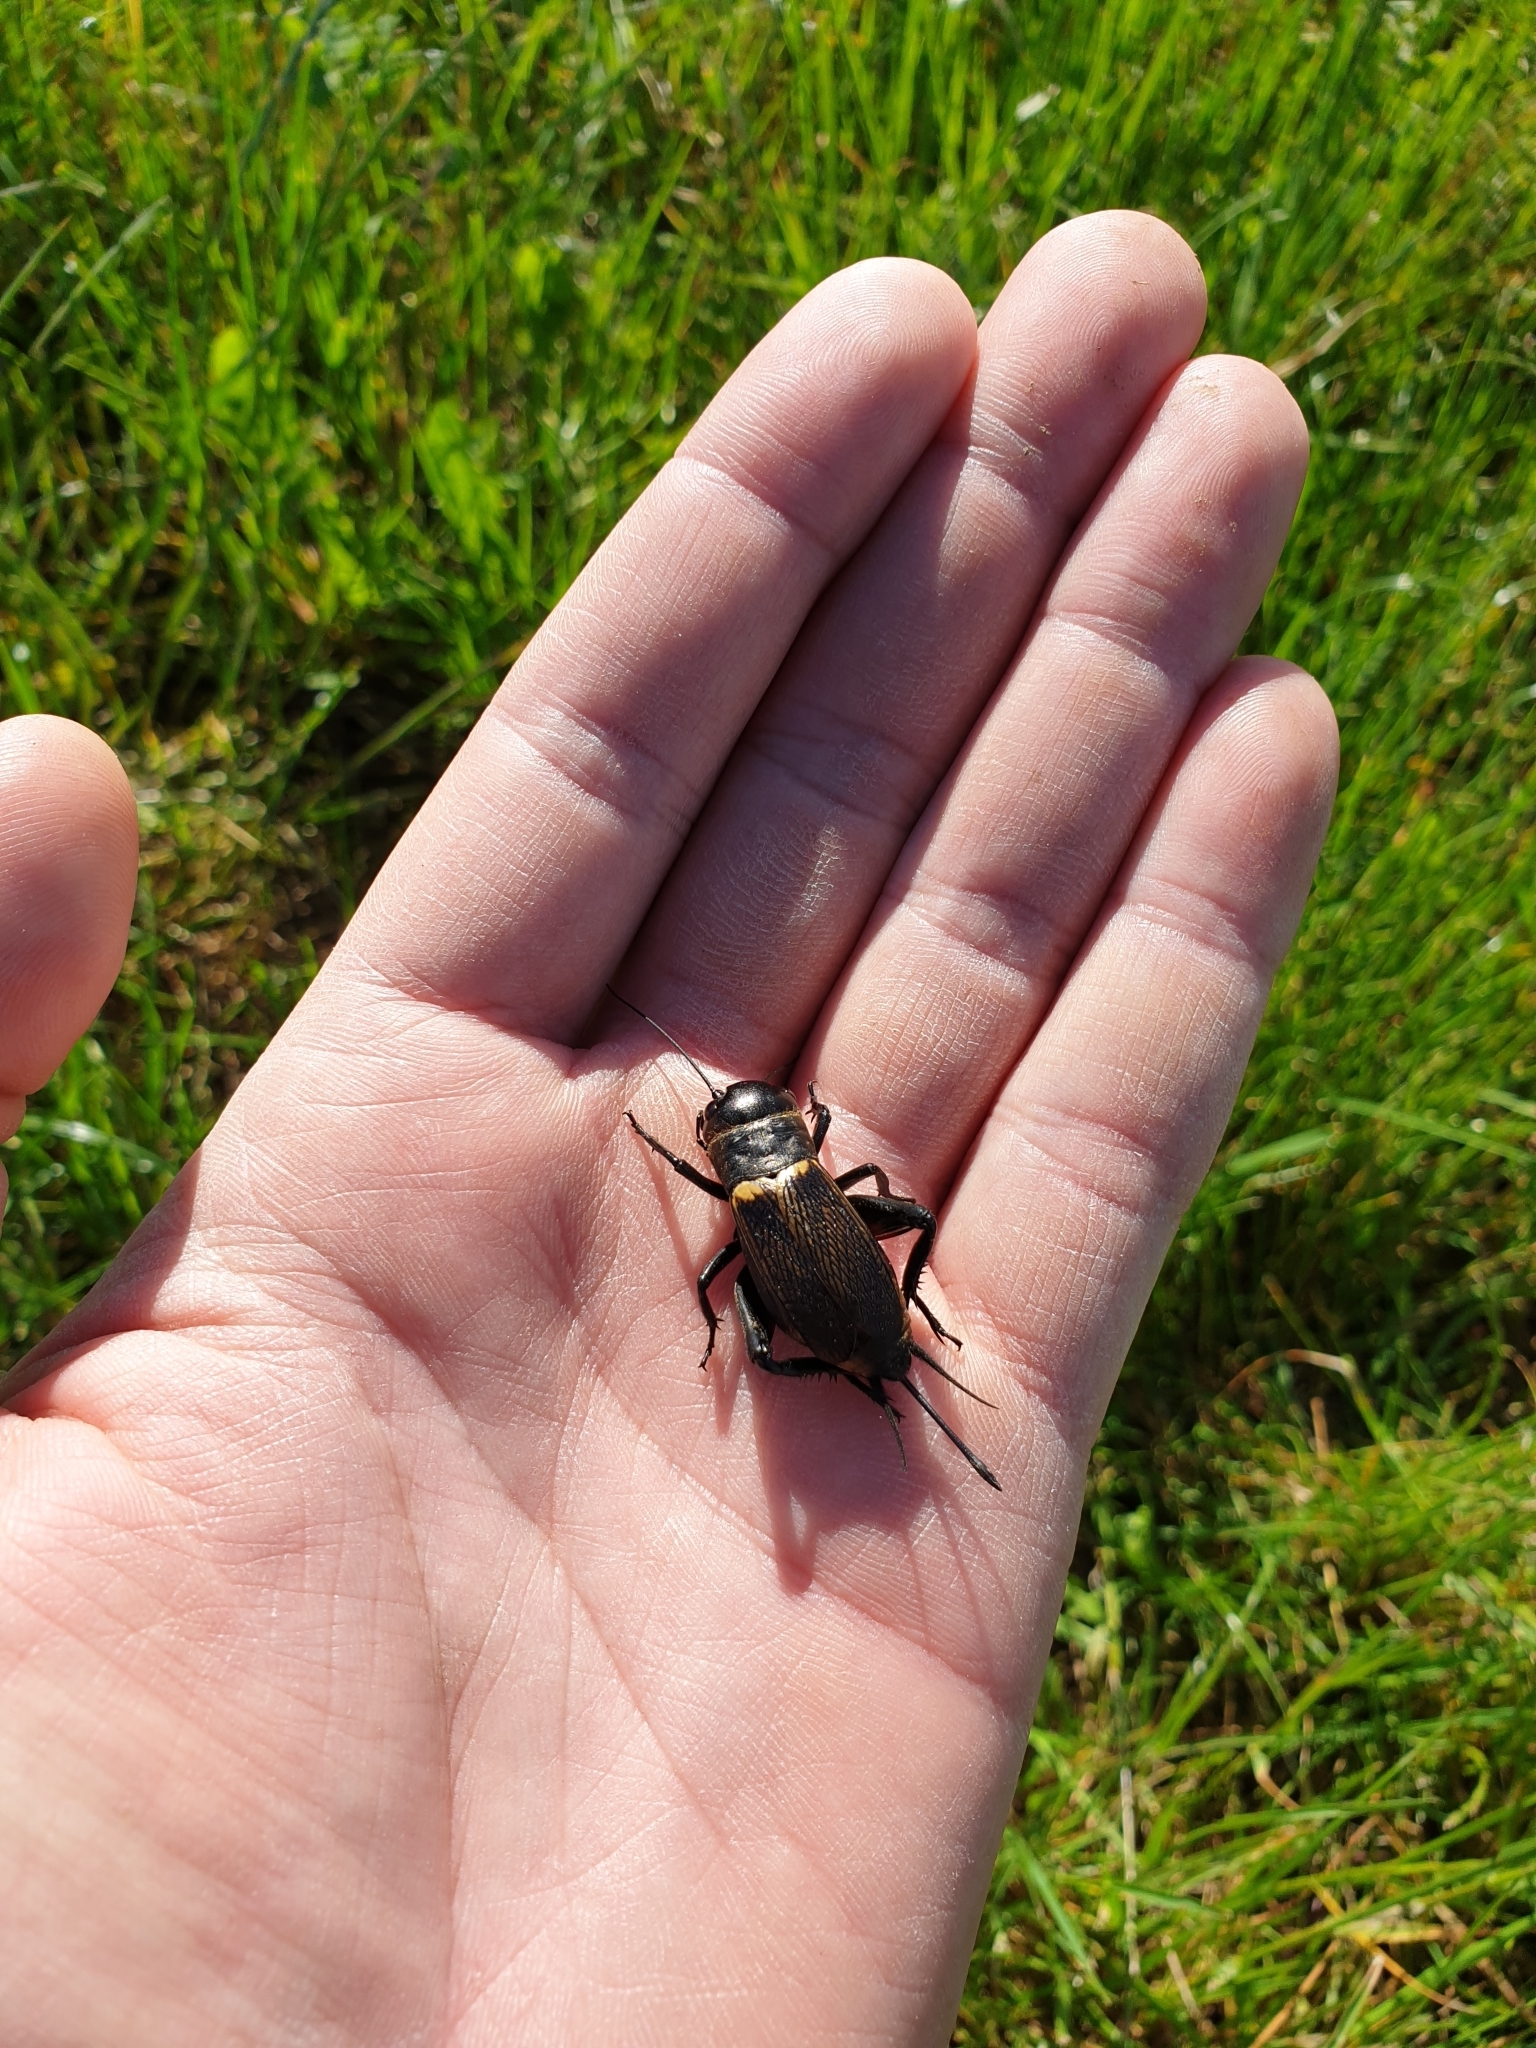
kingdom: Animalia
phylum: Arthropoda
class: Insecta
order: Orthoptera
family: Gryllidae
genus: Gryllus
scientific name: Gryllus campestris
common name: Field cricket
